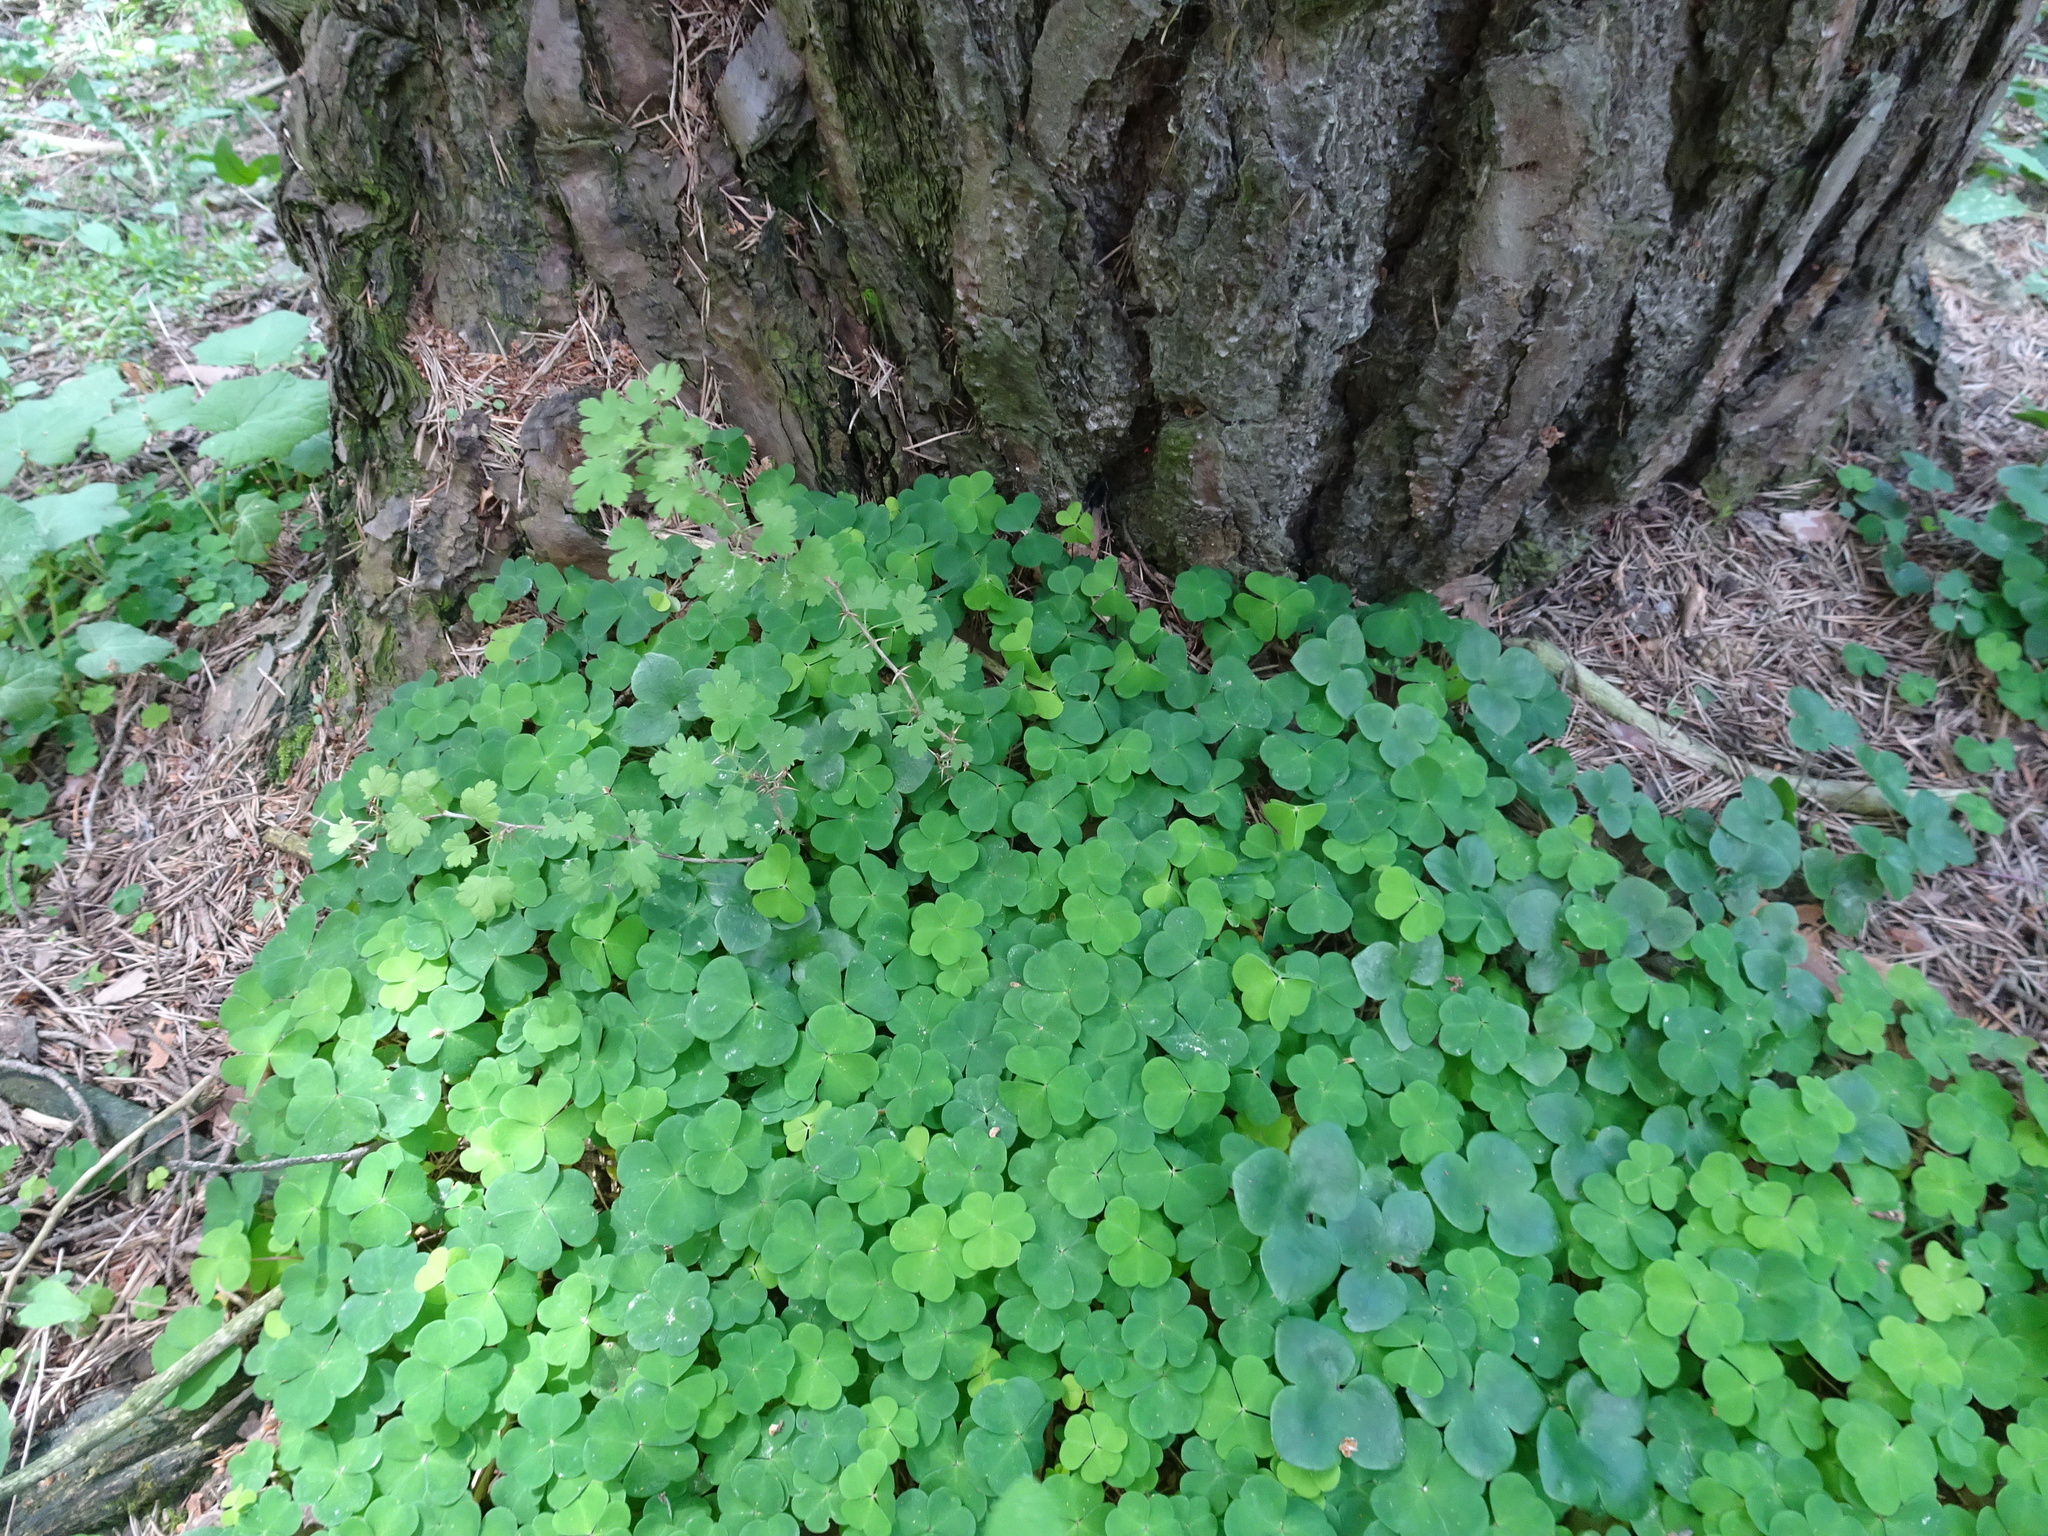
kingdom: Plantae
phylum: Tracheophyta
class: Magnoliopsida
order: Oxalidales
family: Oxalidaceae
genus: Oxalis
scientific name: Oxalis acetosella
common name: Wood-sorrel
